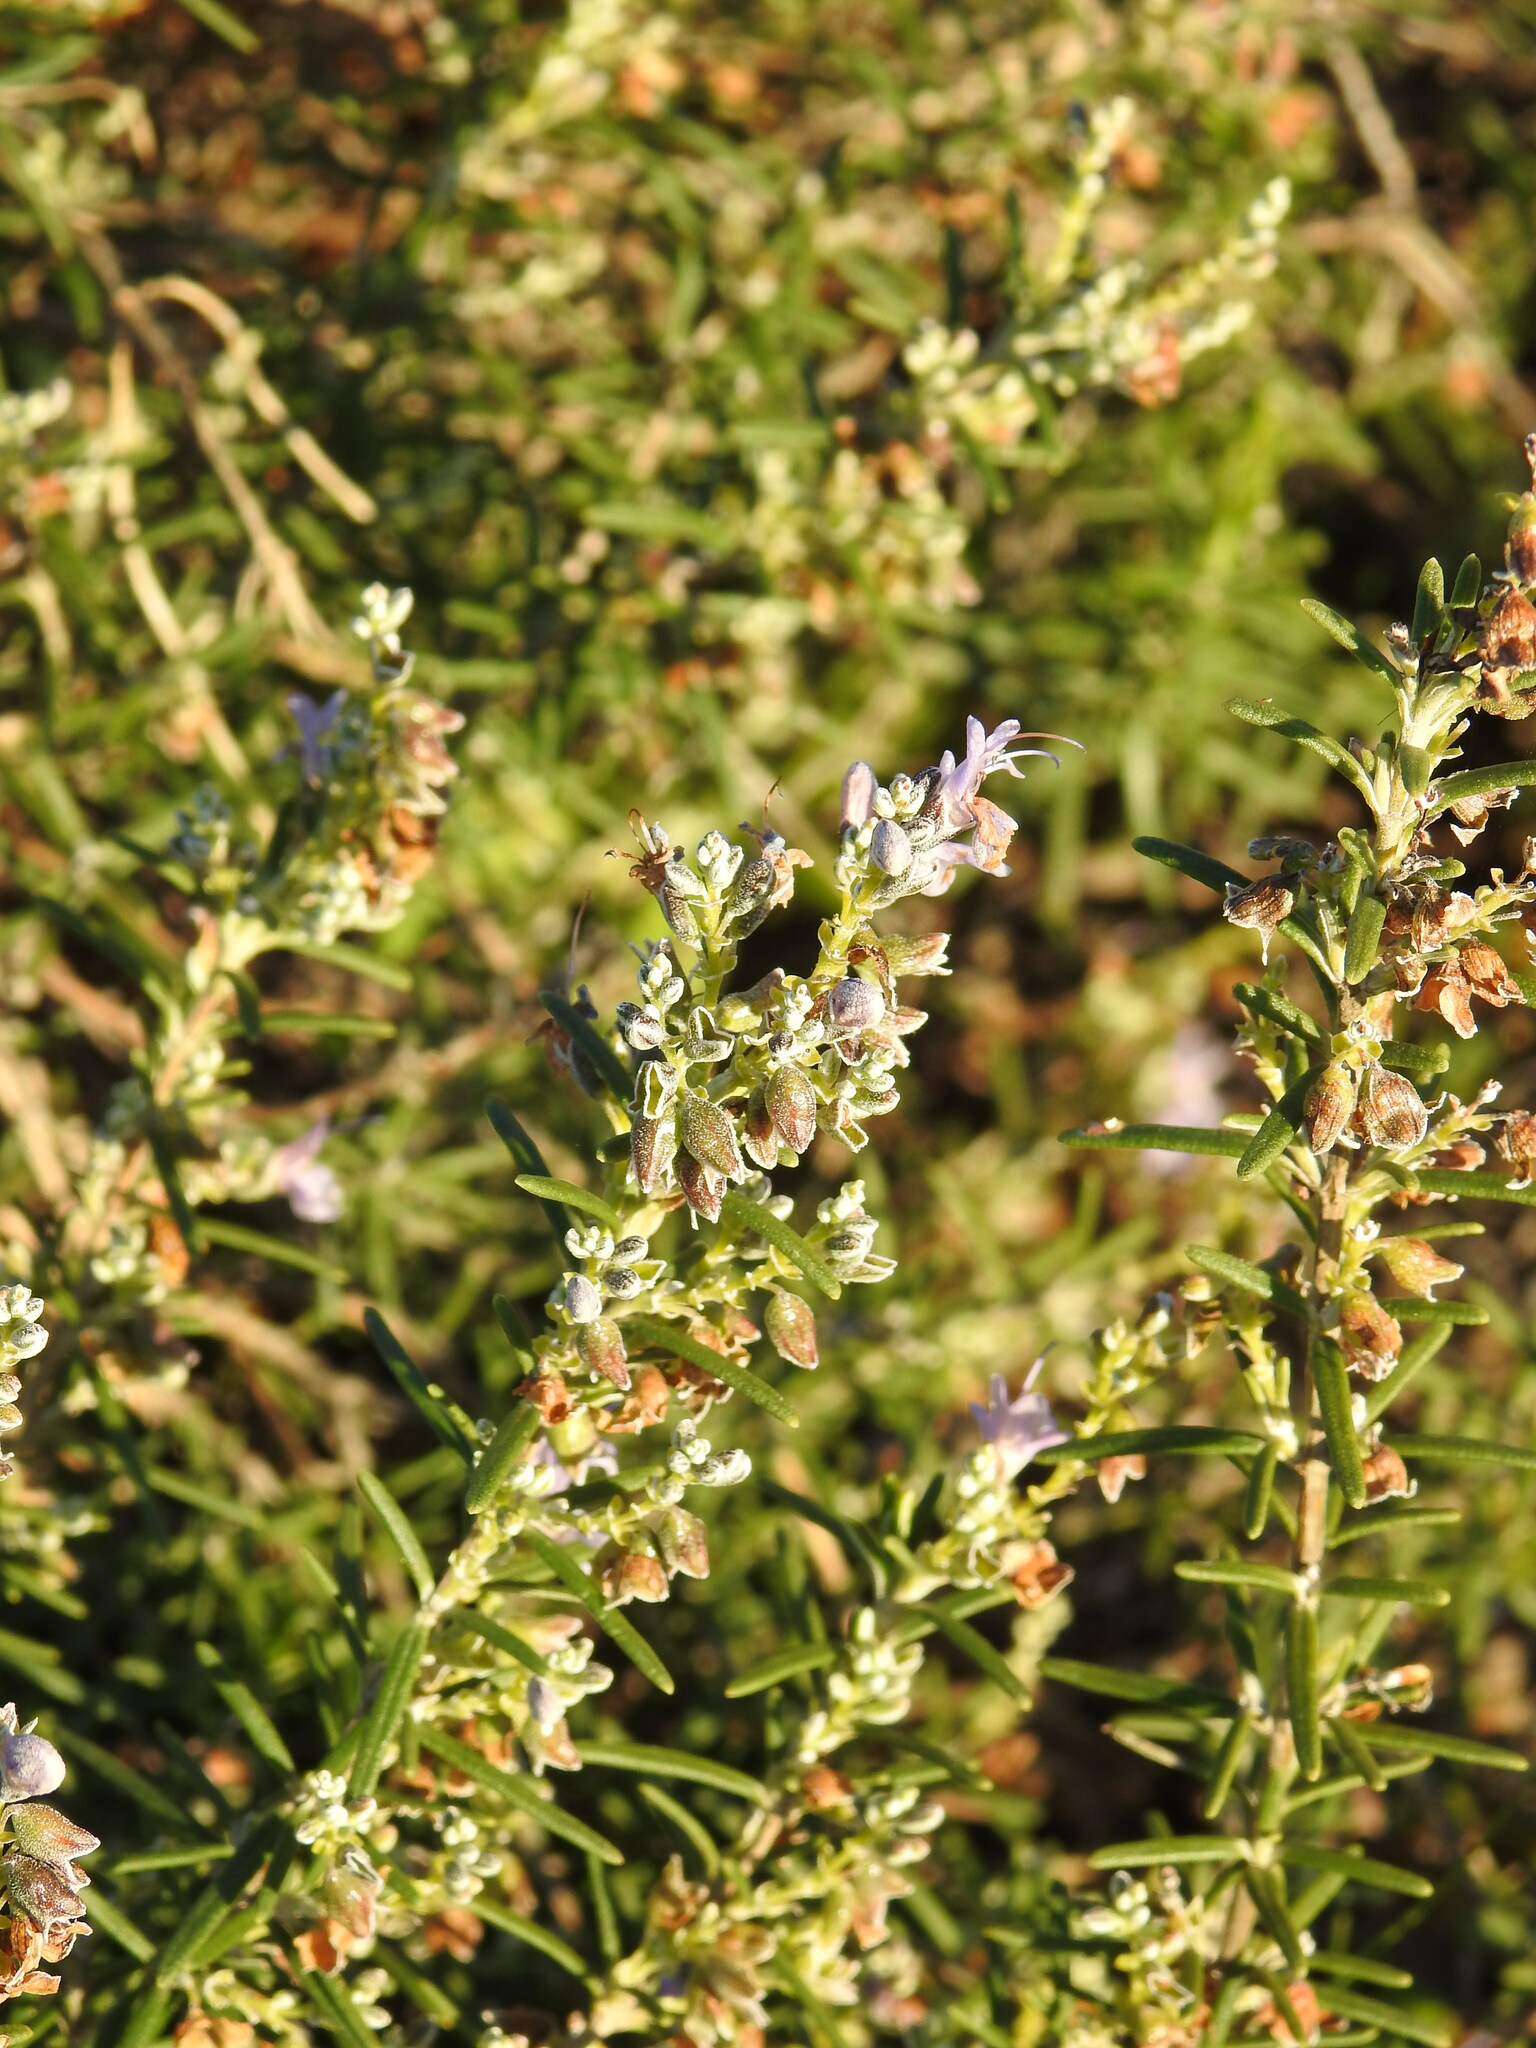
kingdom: Plantae
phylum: Tracheophyta
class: Magnoliopsida
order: Lamiales
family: Lamiaceae
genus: Salvia
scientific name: Salvia rosmarinus
